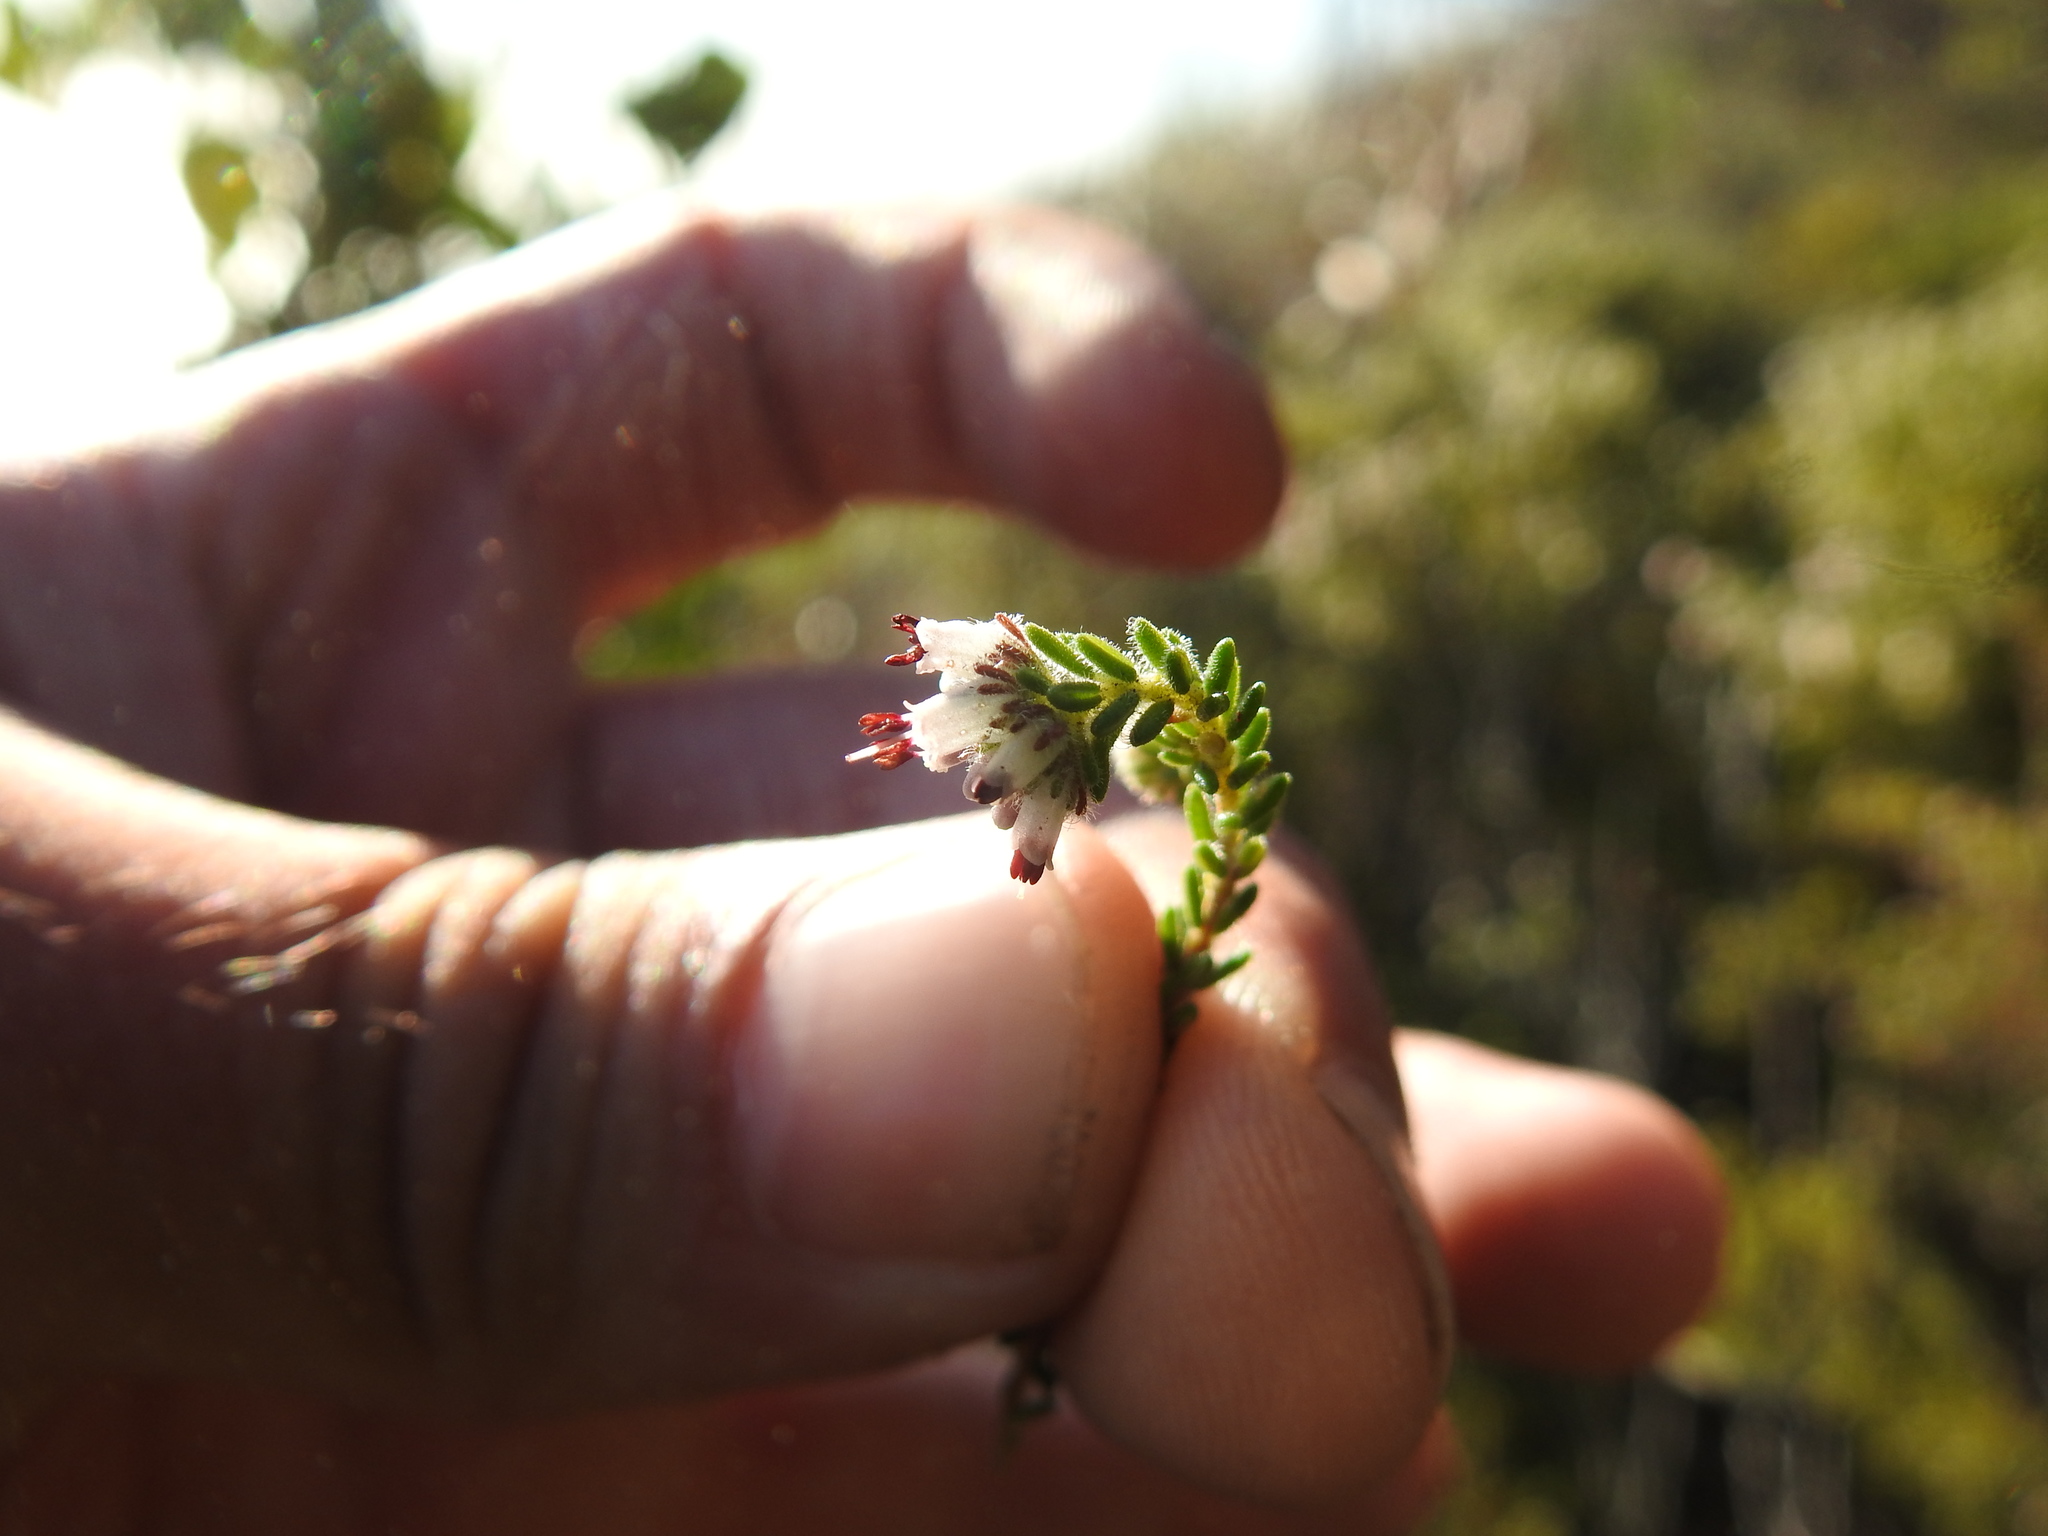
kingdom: Plantae
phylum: Tracheophyta
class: Magnoliopsida
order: Ericales
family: Ericaceae
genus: Erica
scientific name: Erica ericoides
